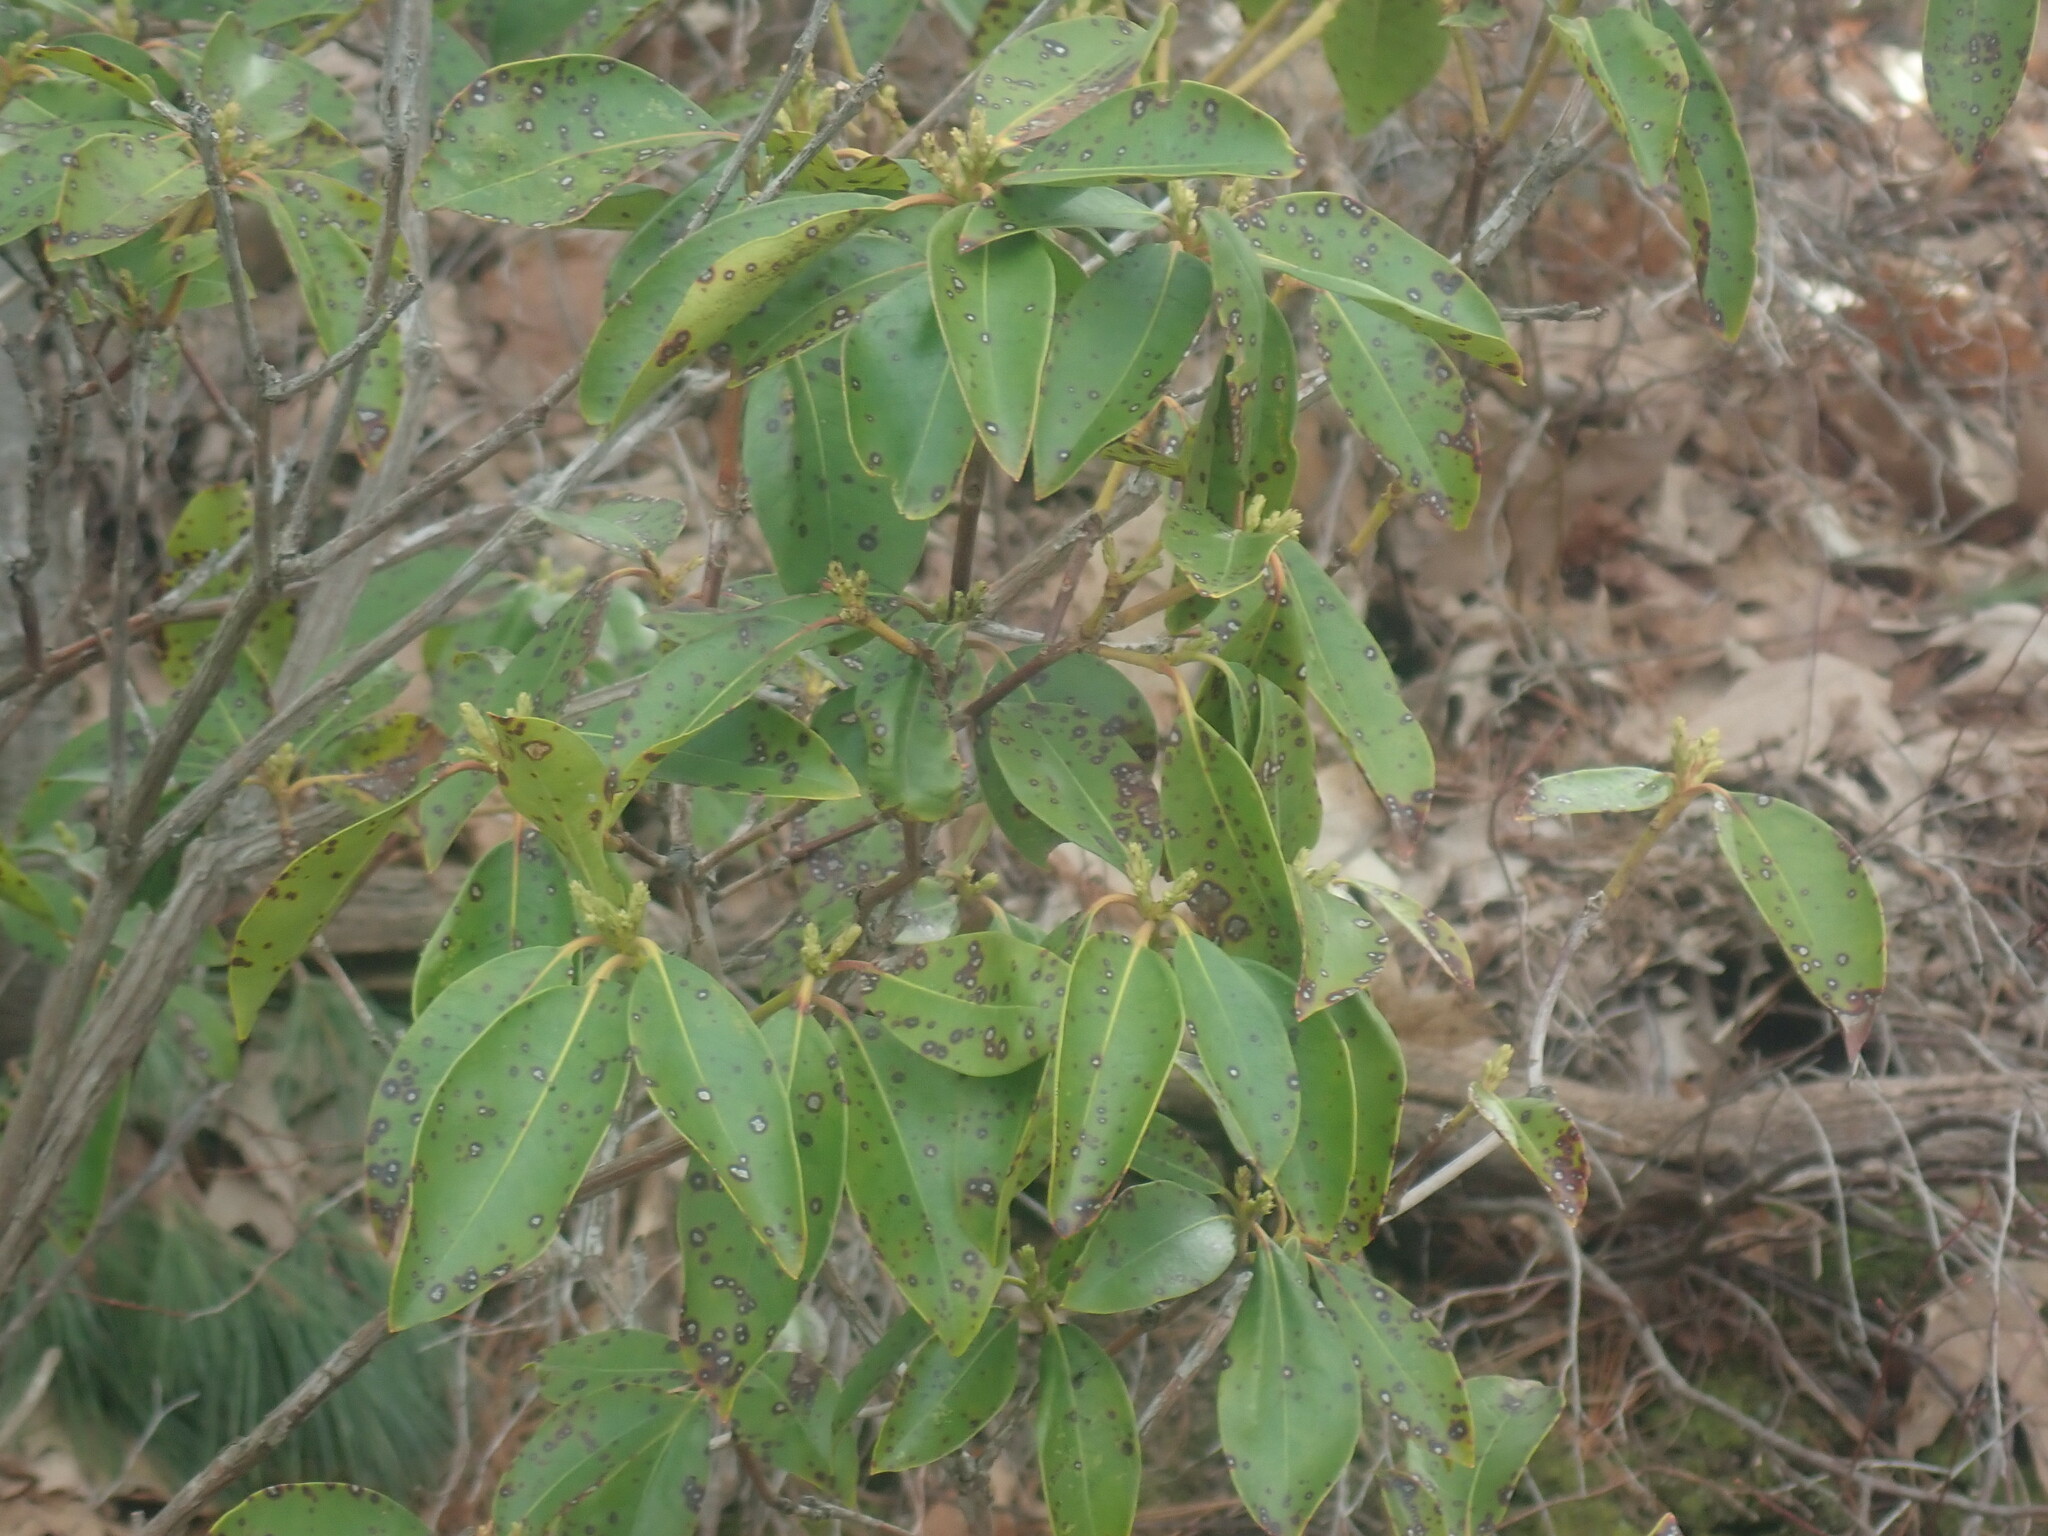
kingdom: Plantae
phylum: Tracheophyta
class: Magnoliopsida
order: Ericales
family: Ericaceae
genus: Kalmia
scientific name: Kalmia latifolia
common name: Mountain-laurel
